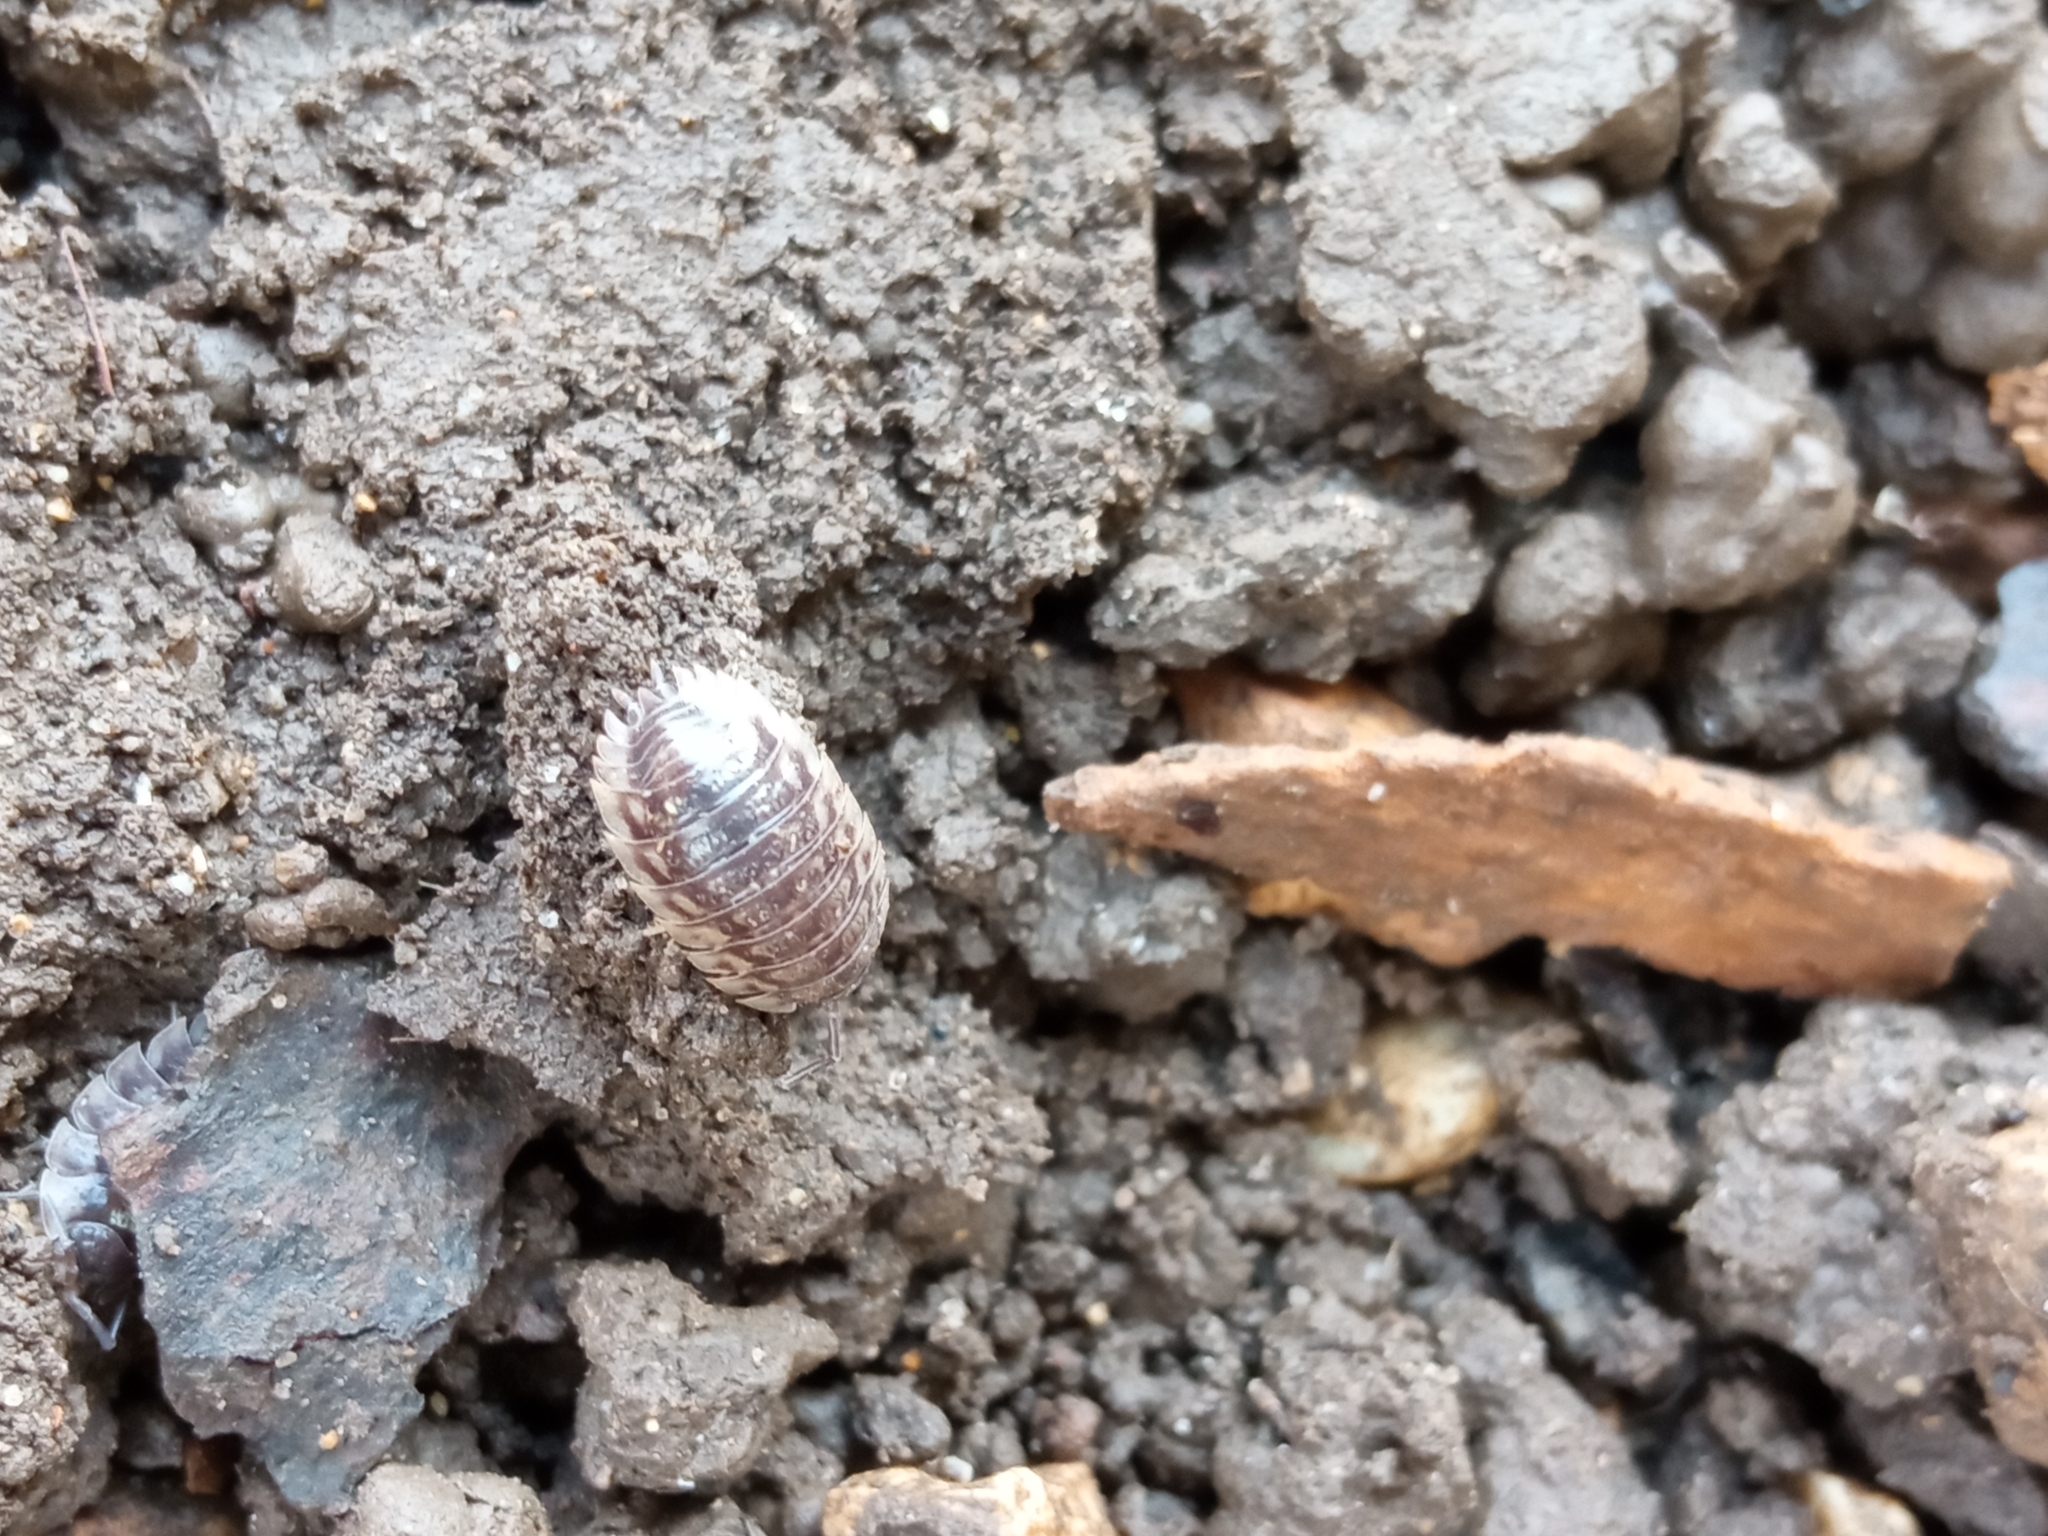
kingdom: Animalia
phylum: Arthropoda
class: Malacostraca
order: Isopoda
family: Oniscidae
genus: Oniscus
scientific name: Oniscus asellus
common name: Common shiny woodlouse
